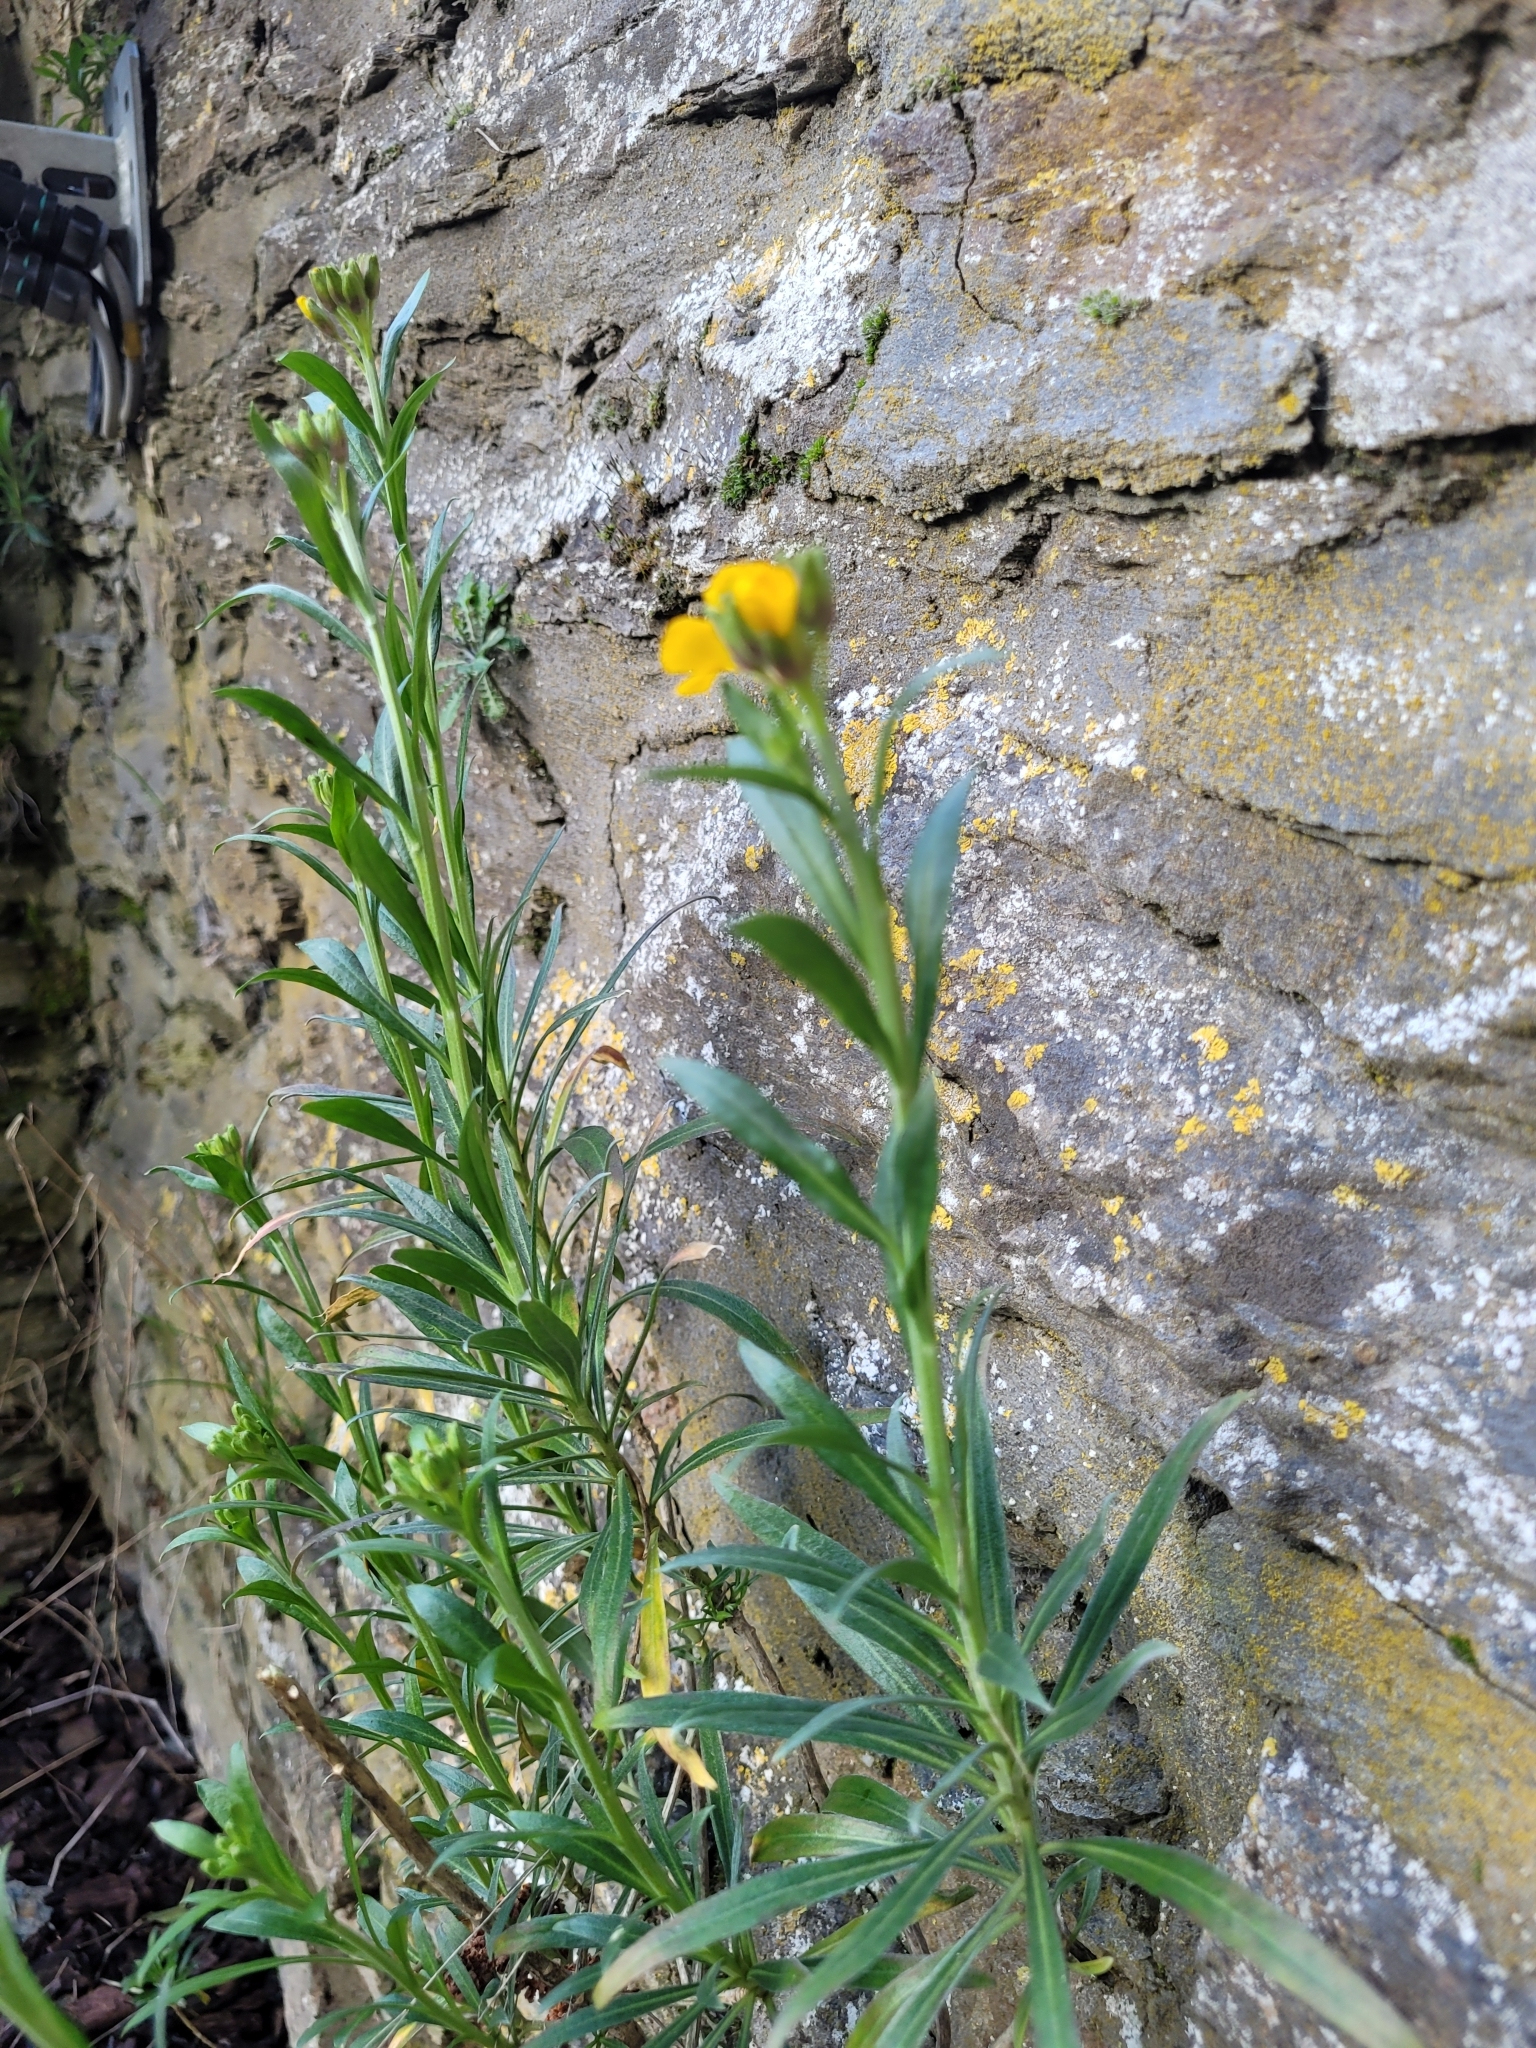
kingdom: Plantae
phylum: Tracheophyta
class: Magnoliopsida
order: Brassicales
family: Brassicaceae
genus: Erysimum
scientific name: Erysimum cheiri
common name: Wallflower
